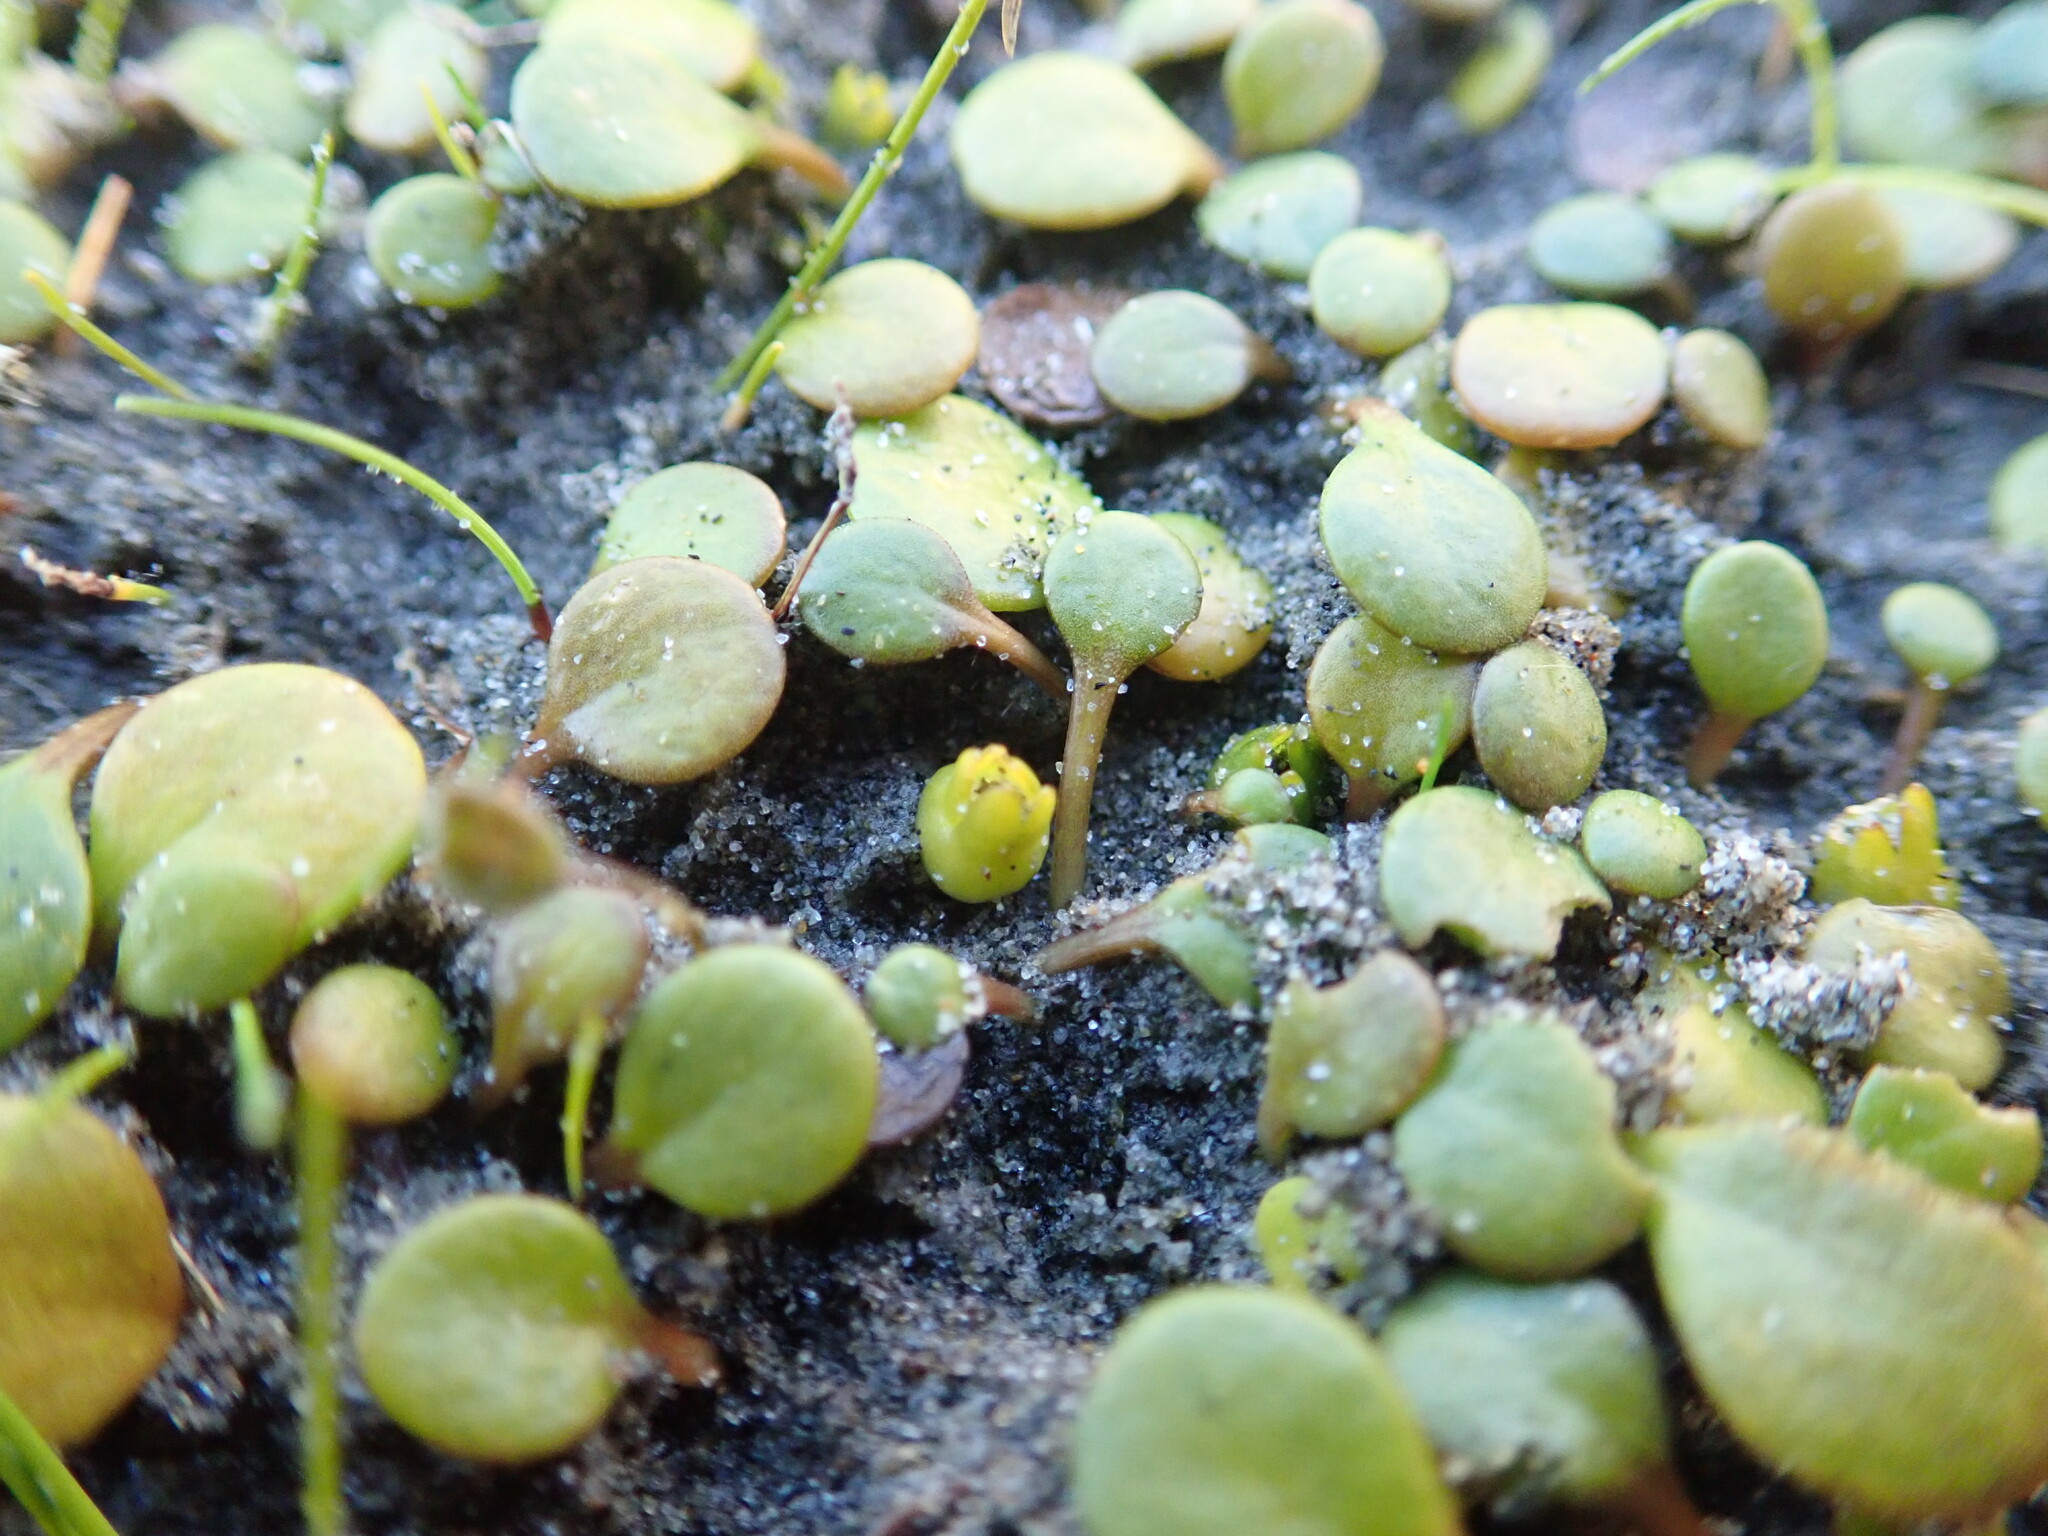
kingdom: Plantae
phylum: Tracheophyta
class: Magnoliopsida
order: Asterales
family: Goodeniaceae
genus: Goodenia
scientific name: Goodenia heenanii
